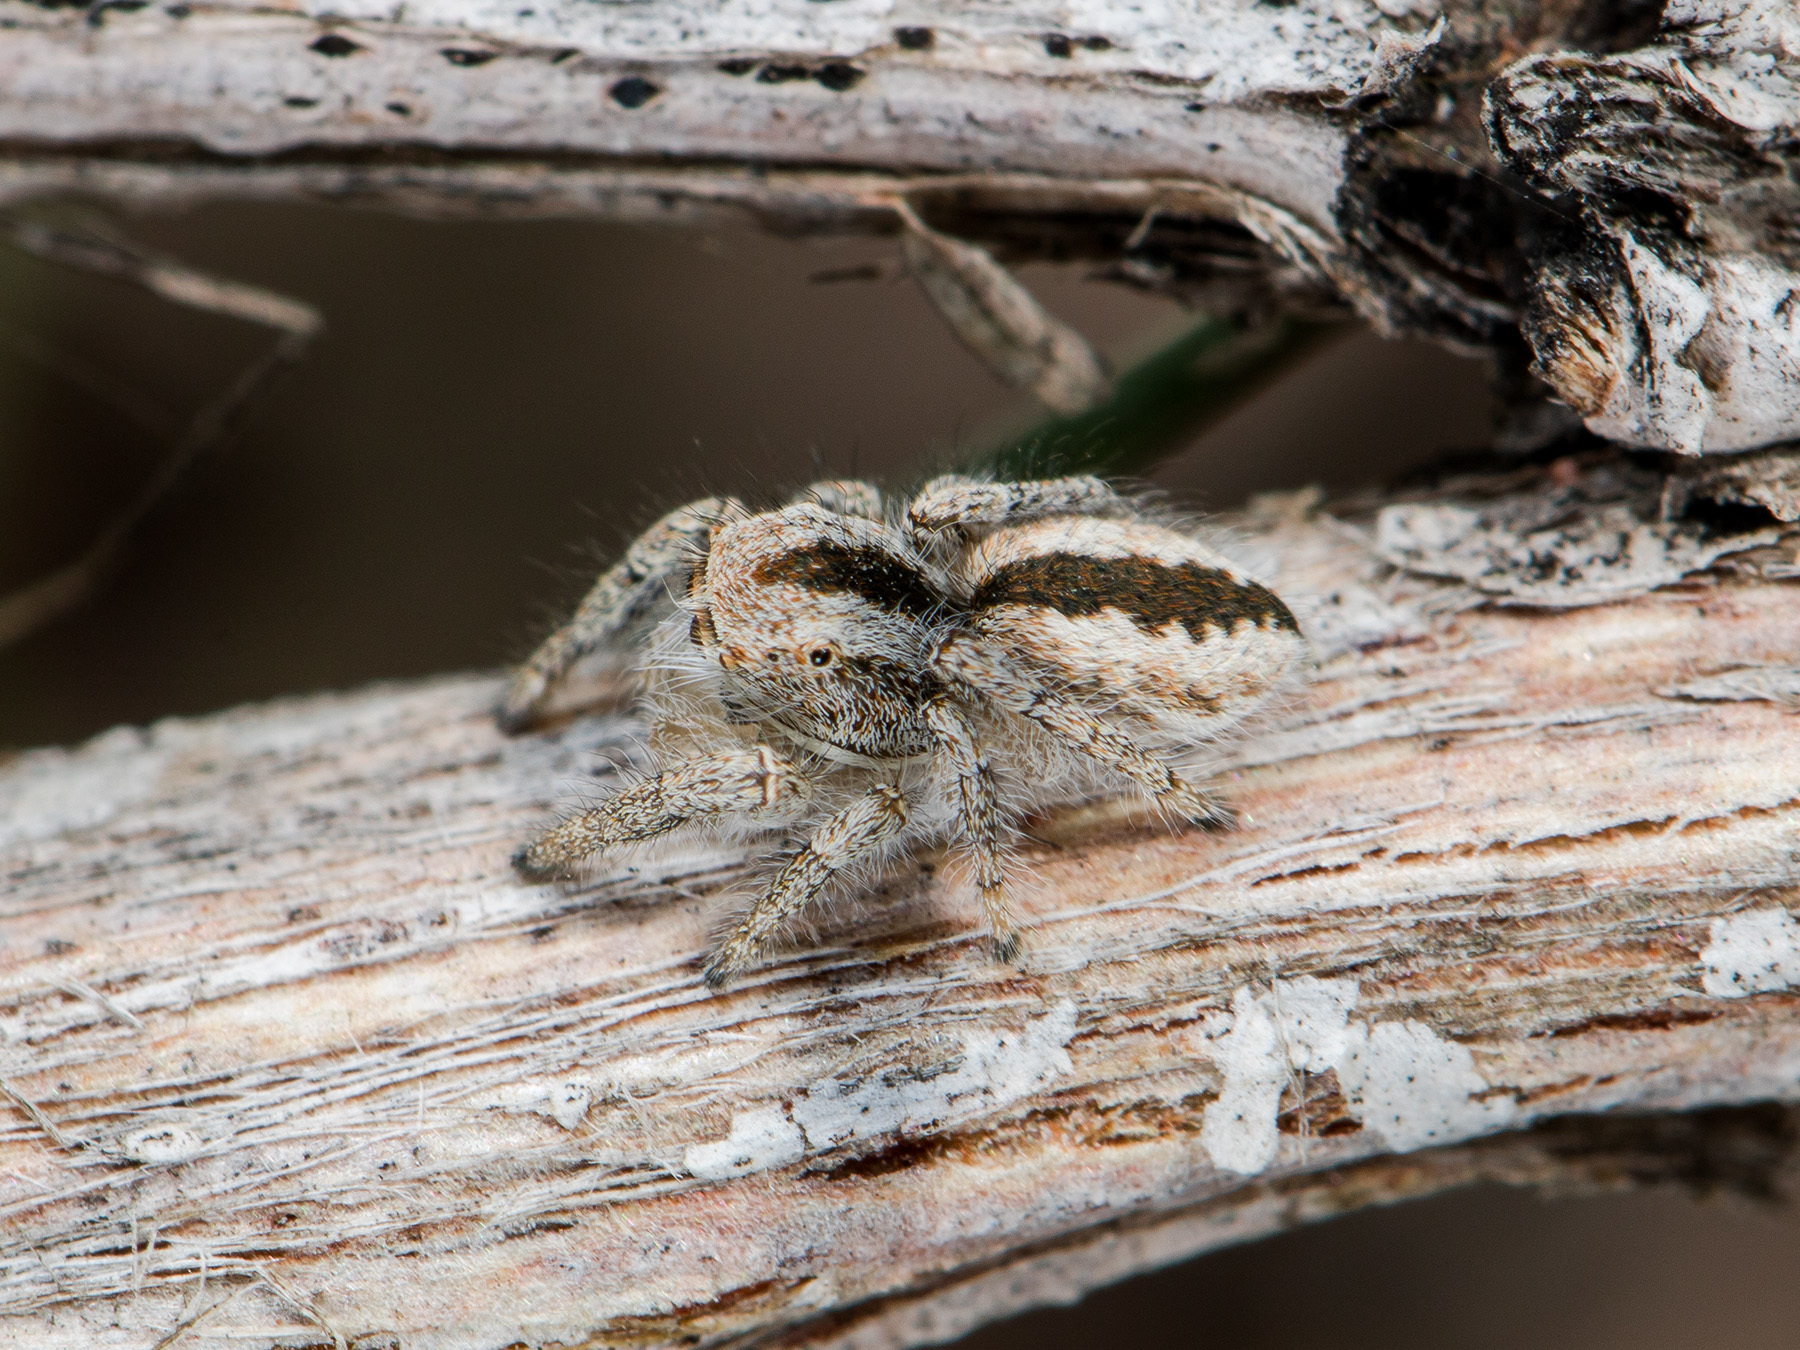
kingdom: Animalia
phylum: Arthropoda
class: Arachnida
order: Araneae
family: Salticidae
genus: Pseudomogrus
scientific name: Pseudomogrus vittatus
